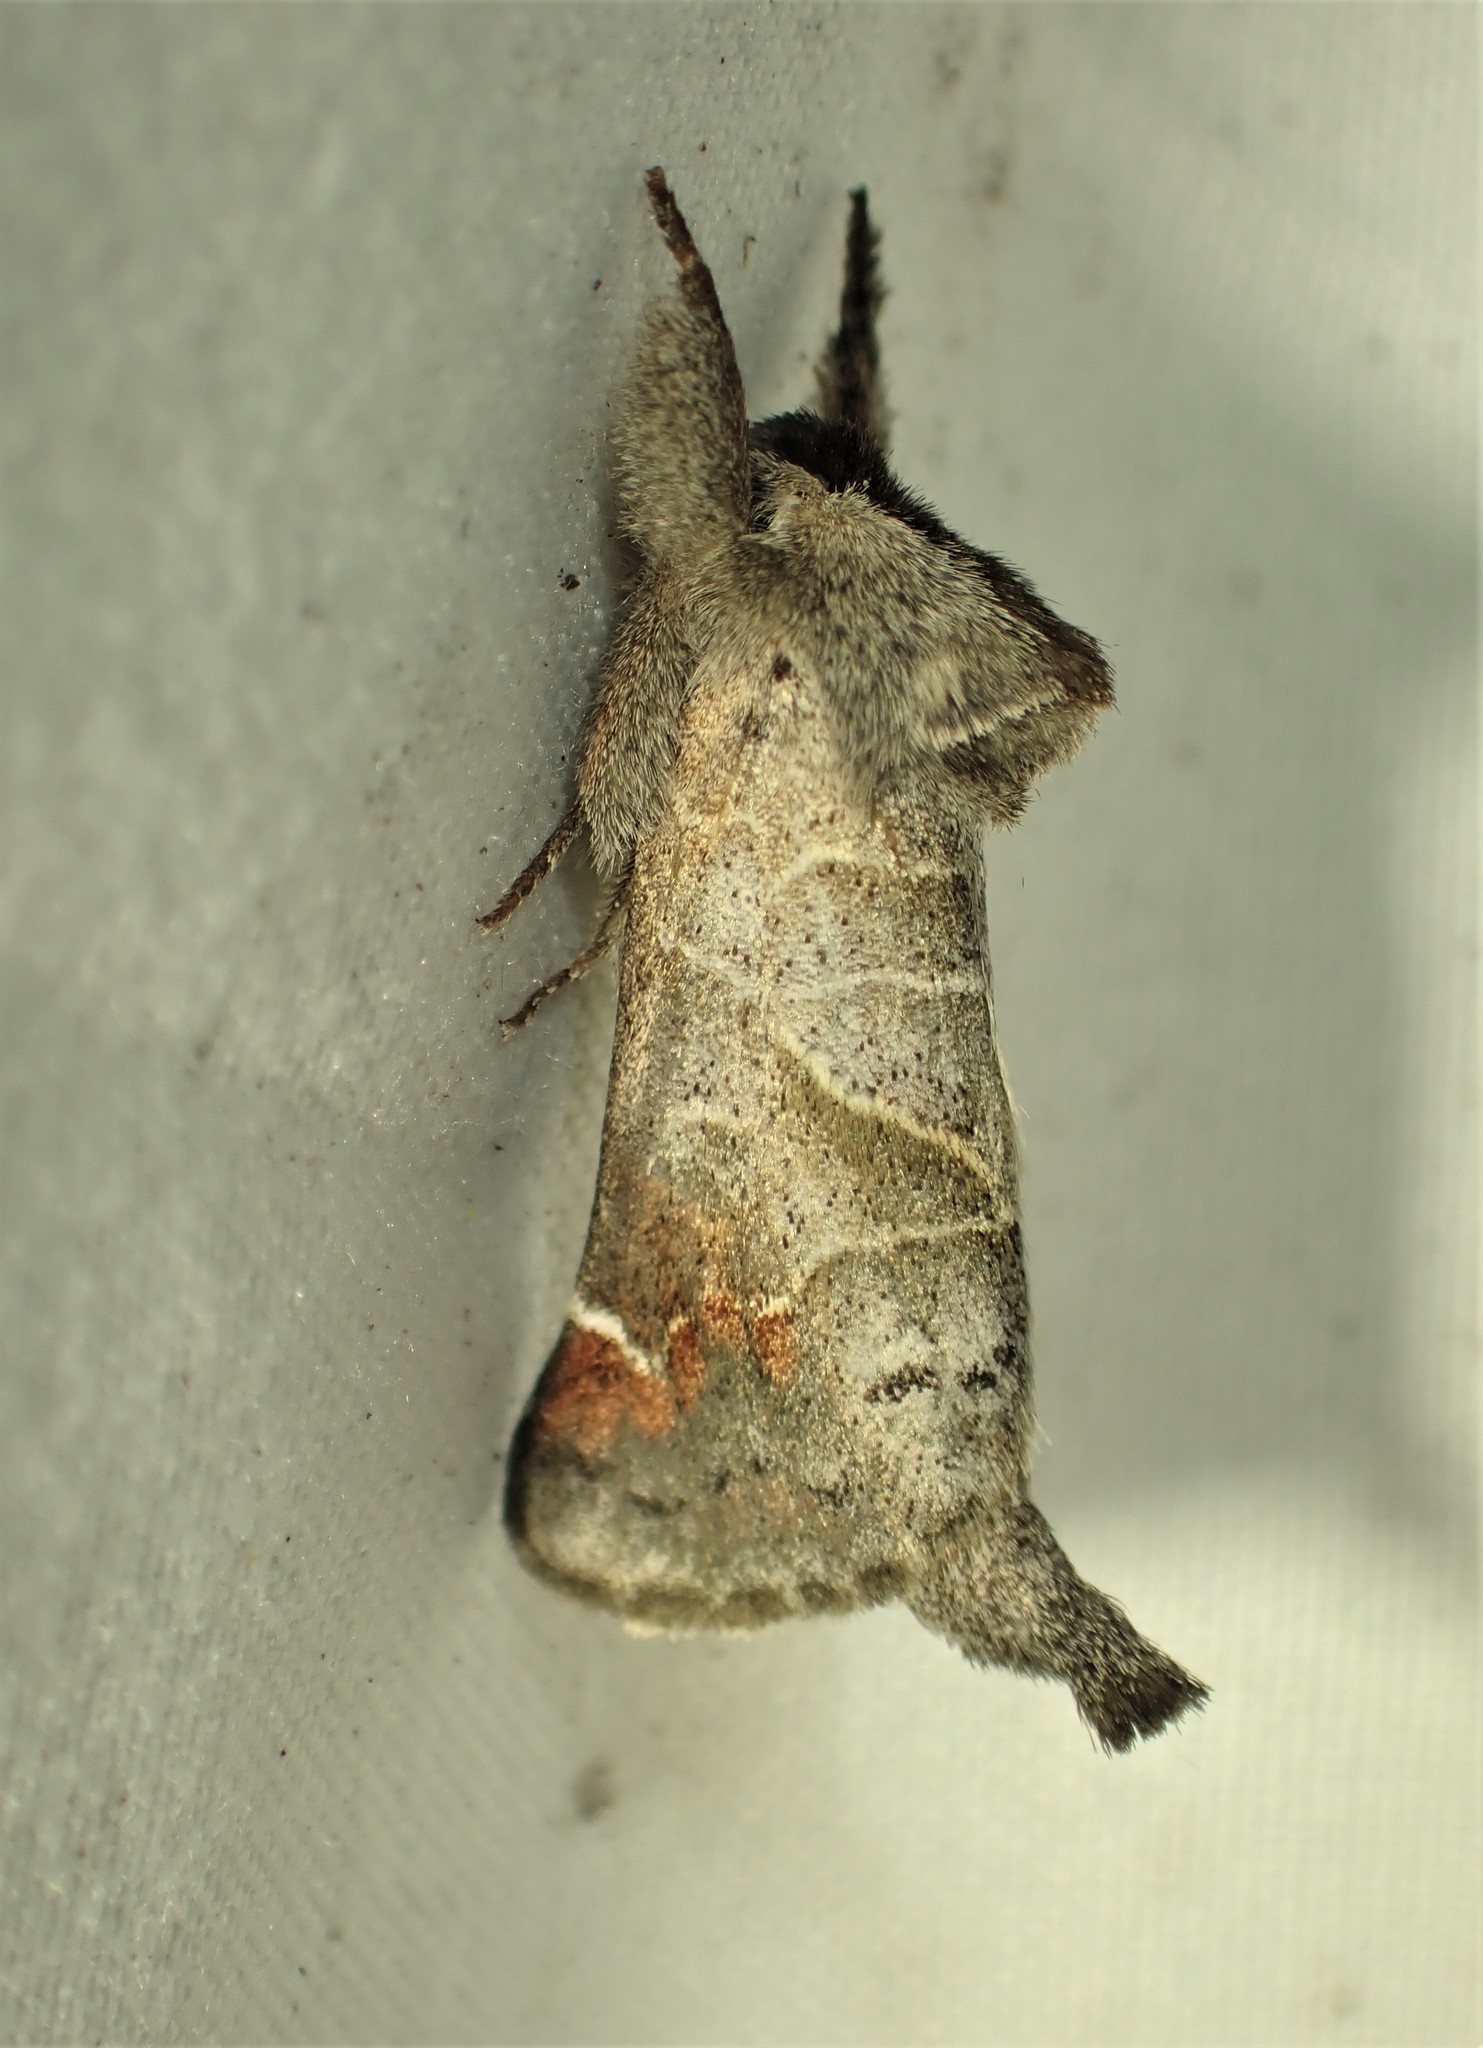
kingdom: Animalia
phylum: Arthropoda
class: Insecta
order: Lepidoptera
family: Notodontidae
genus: Clostera
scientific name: Clostera apicalis
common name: Apical prominent
